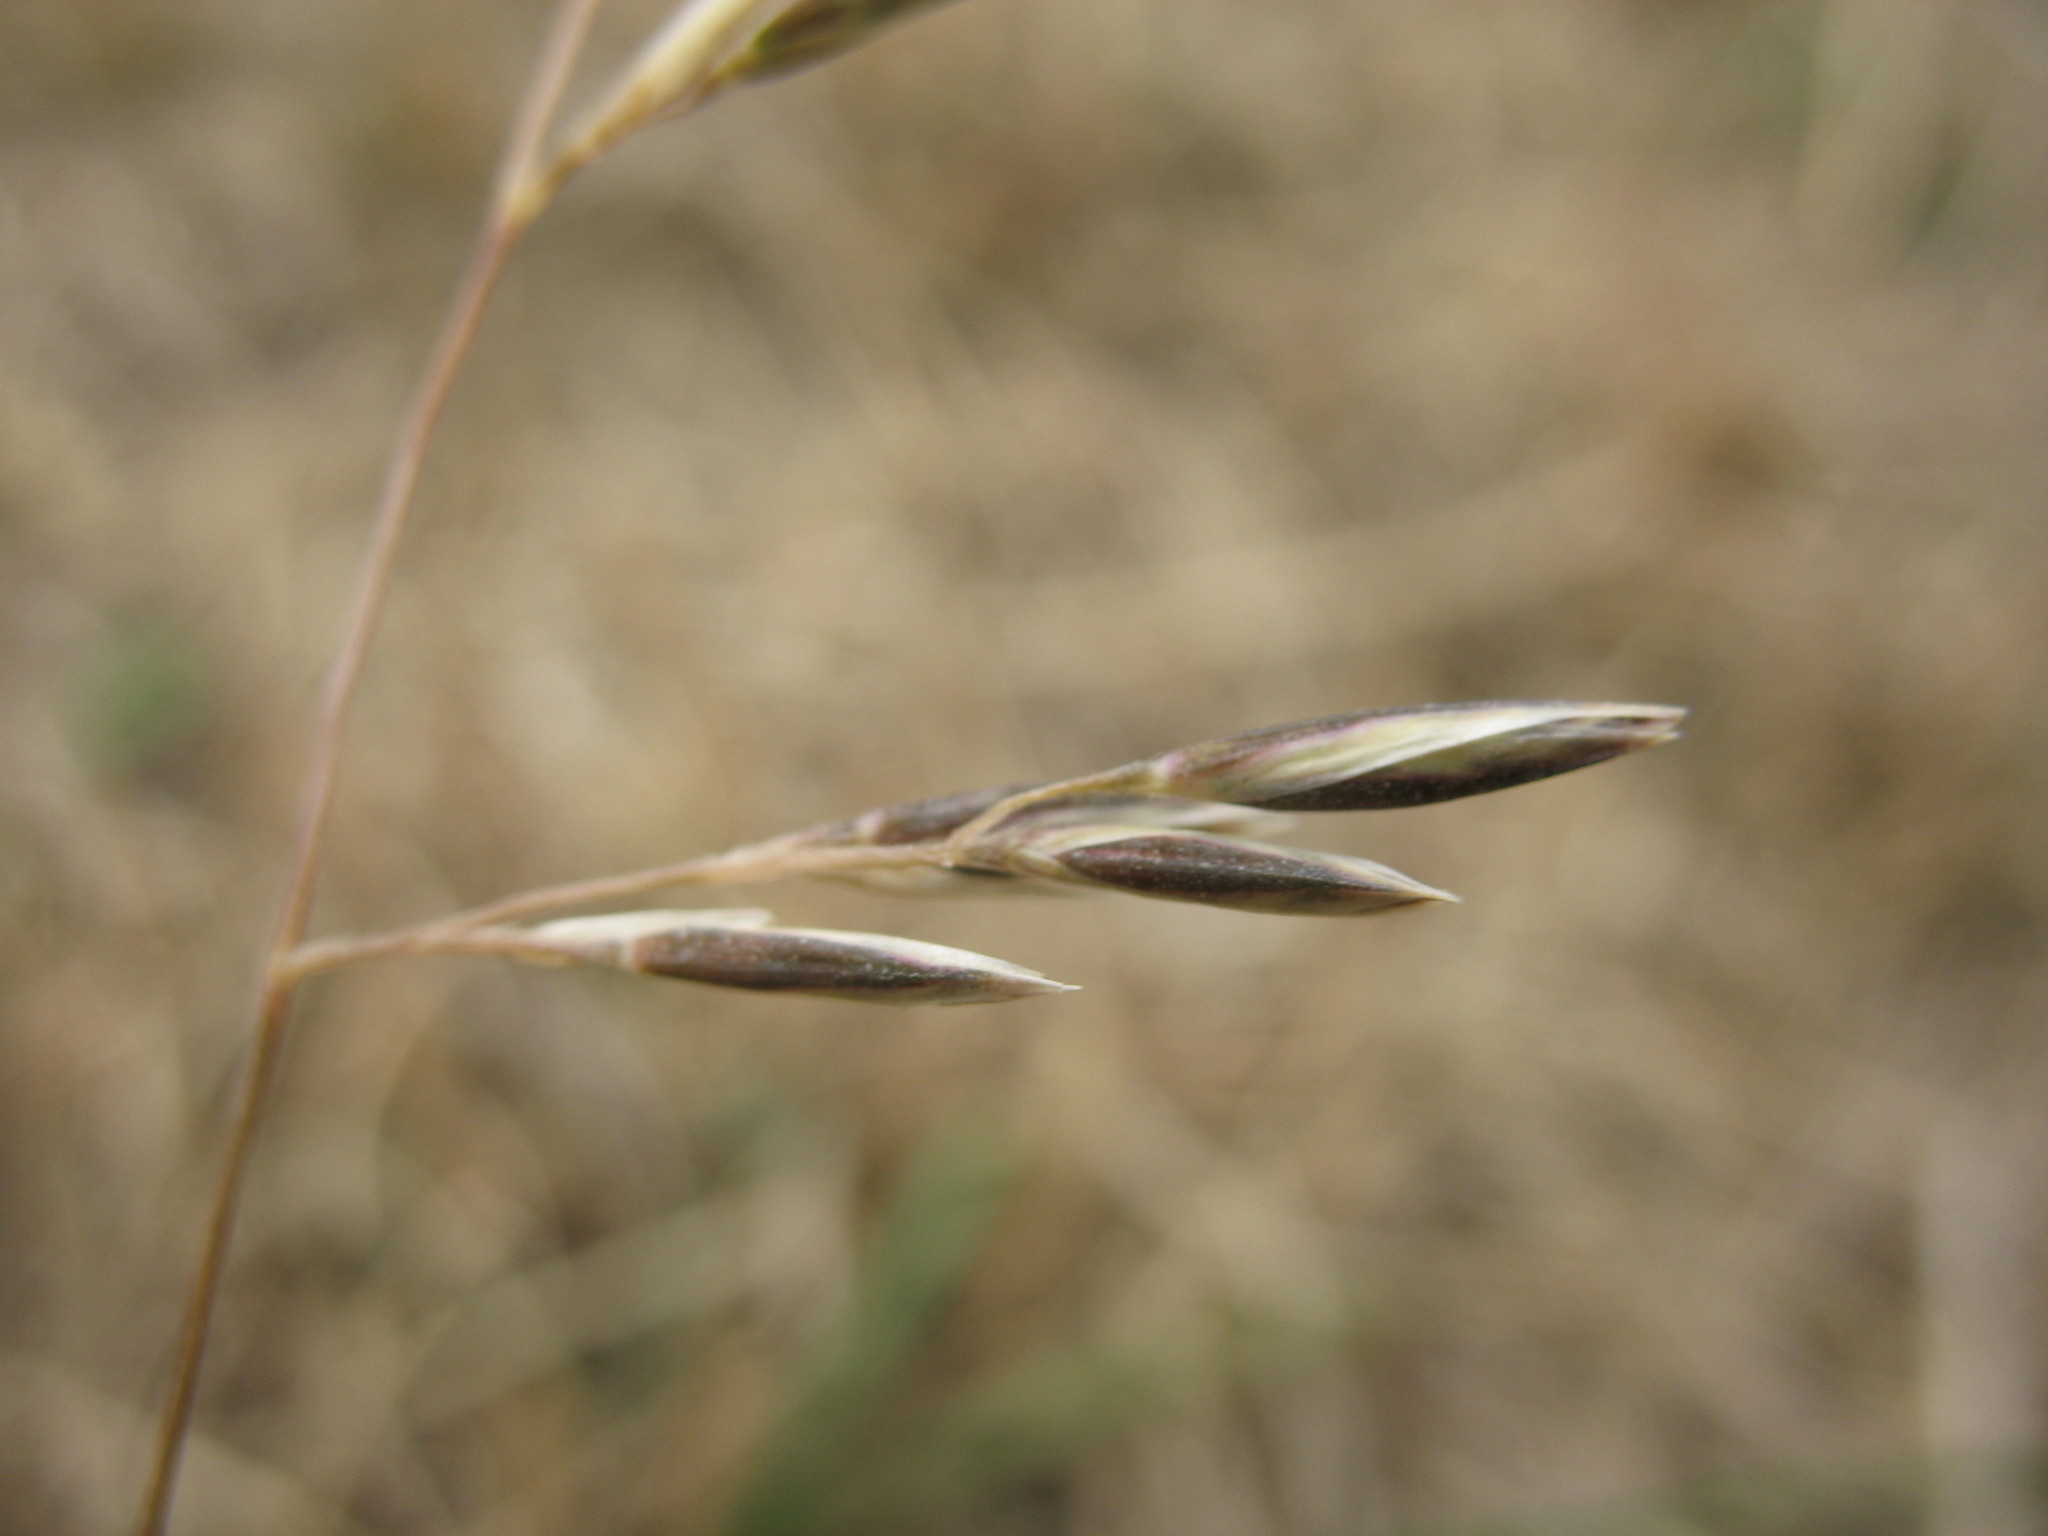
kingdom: Plantae
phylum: Tracheophyta
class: Liliopsida
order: Poales
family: Poaceae
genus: Rytidosperma
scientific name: Rytidosperma thomsonii
